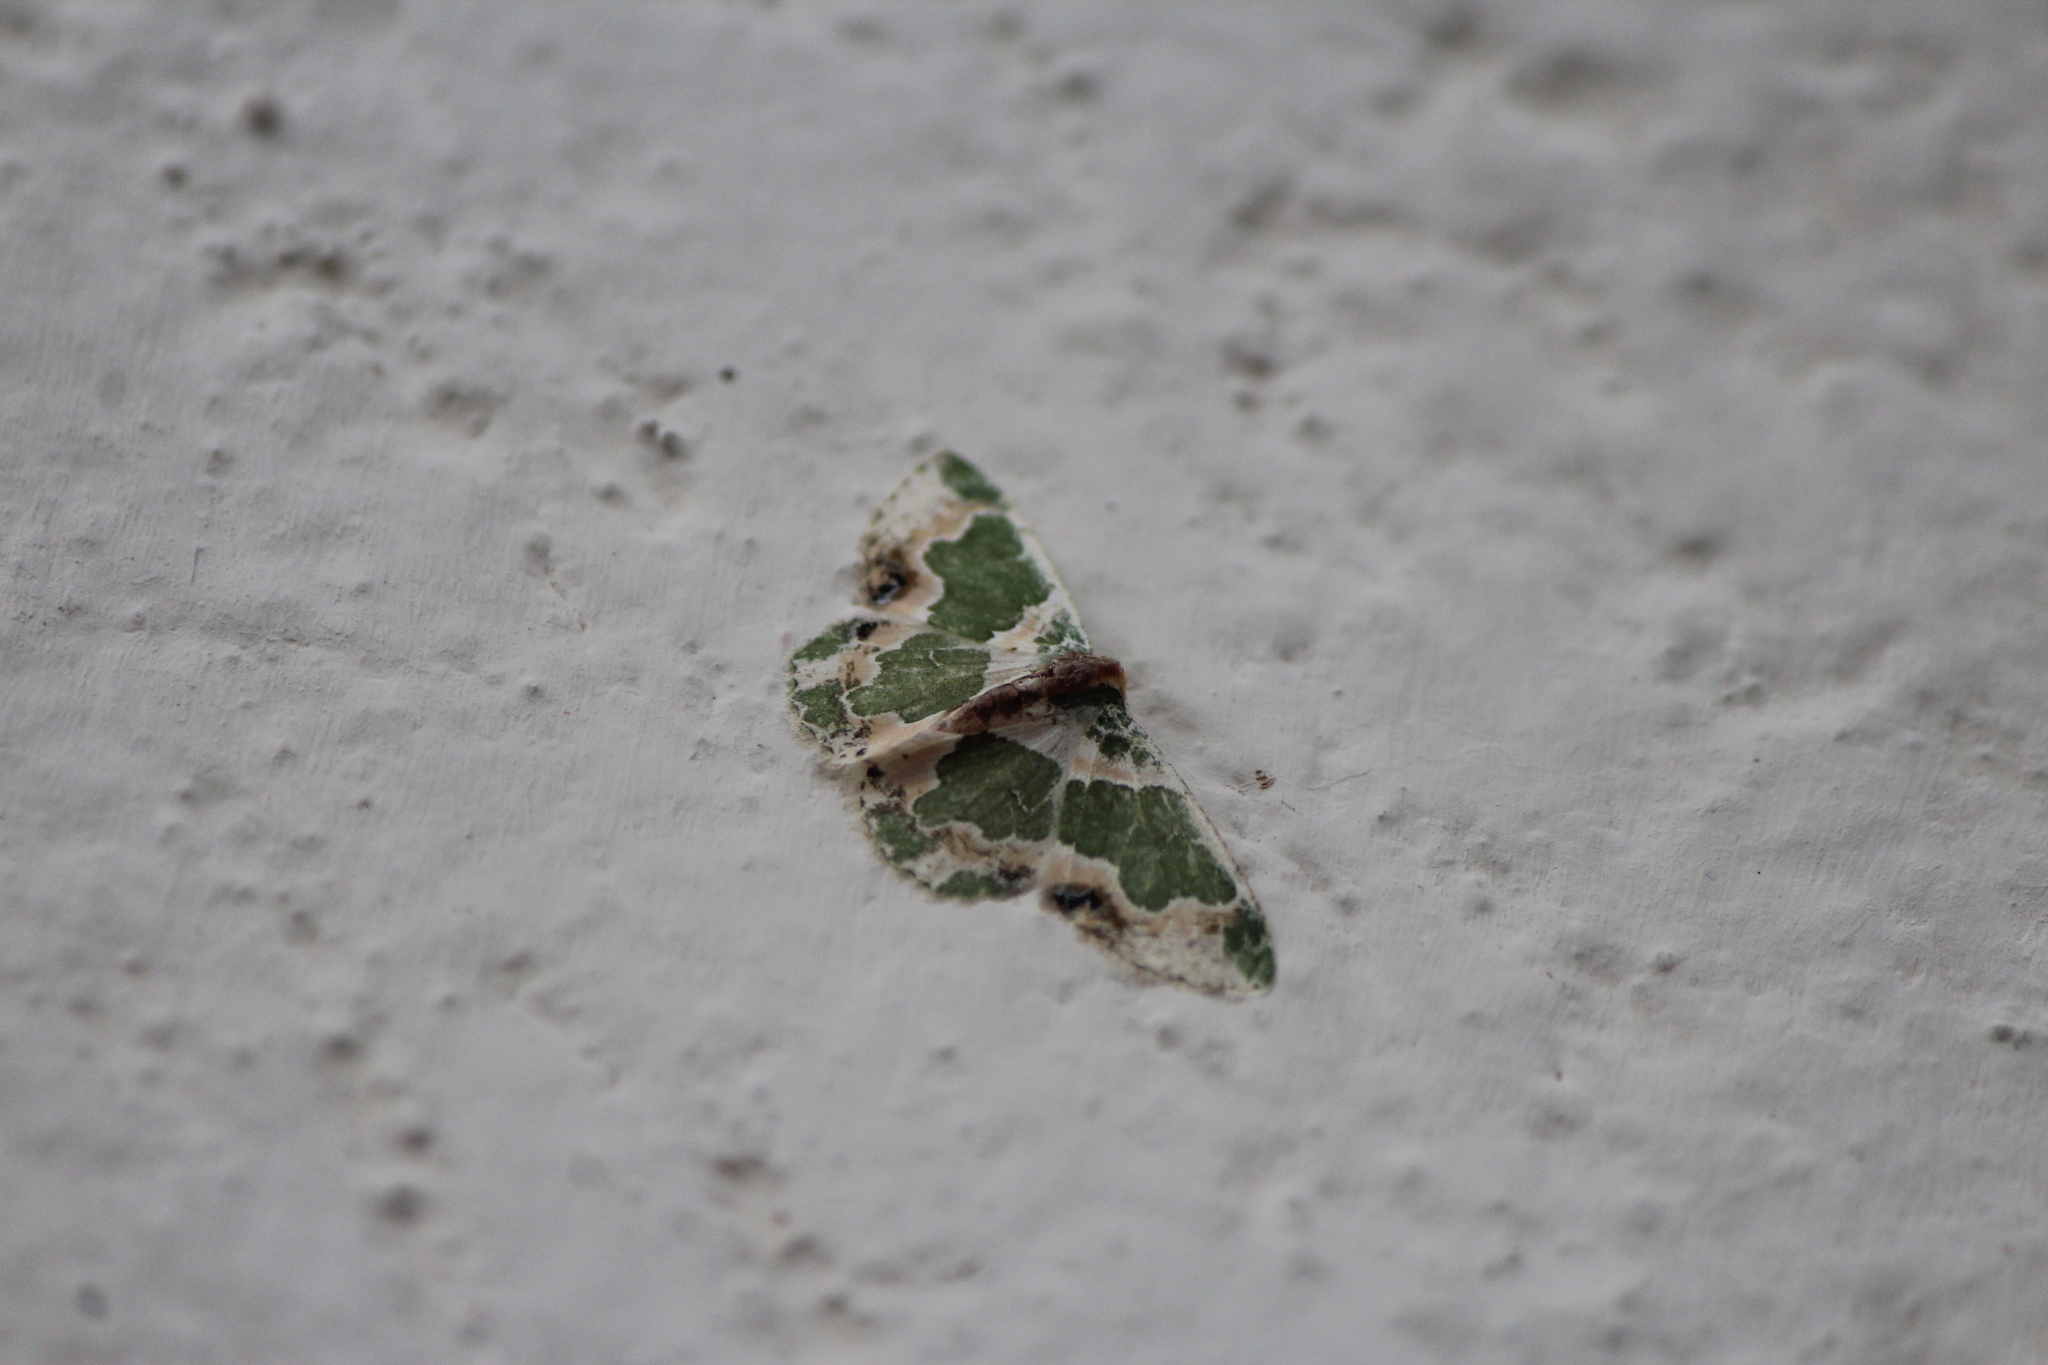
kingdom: Animalia
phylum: Arthropoda
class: Insecta
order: Lepidoptera
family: Geometridae
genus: Lophochorista
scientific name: Lophochorista calliope
